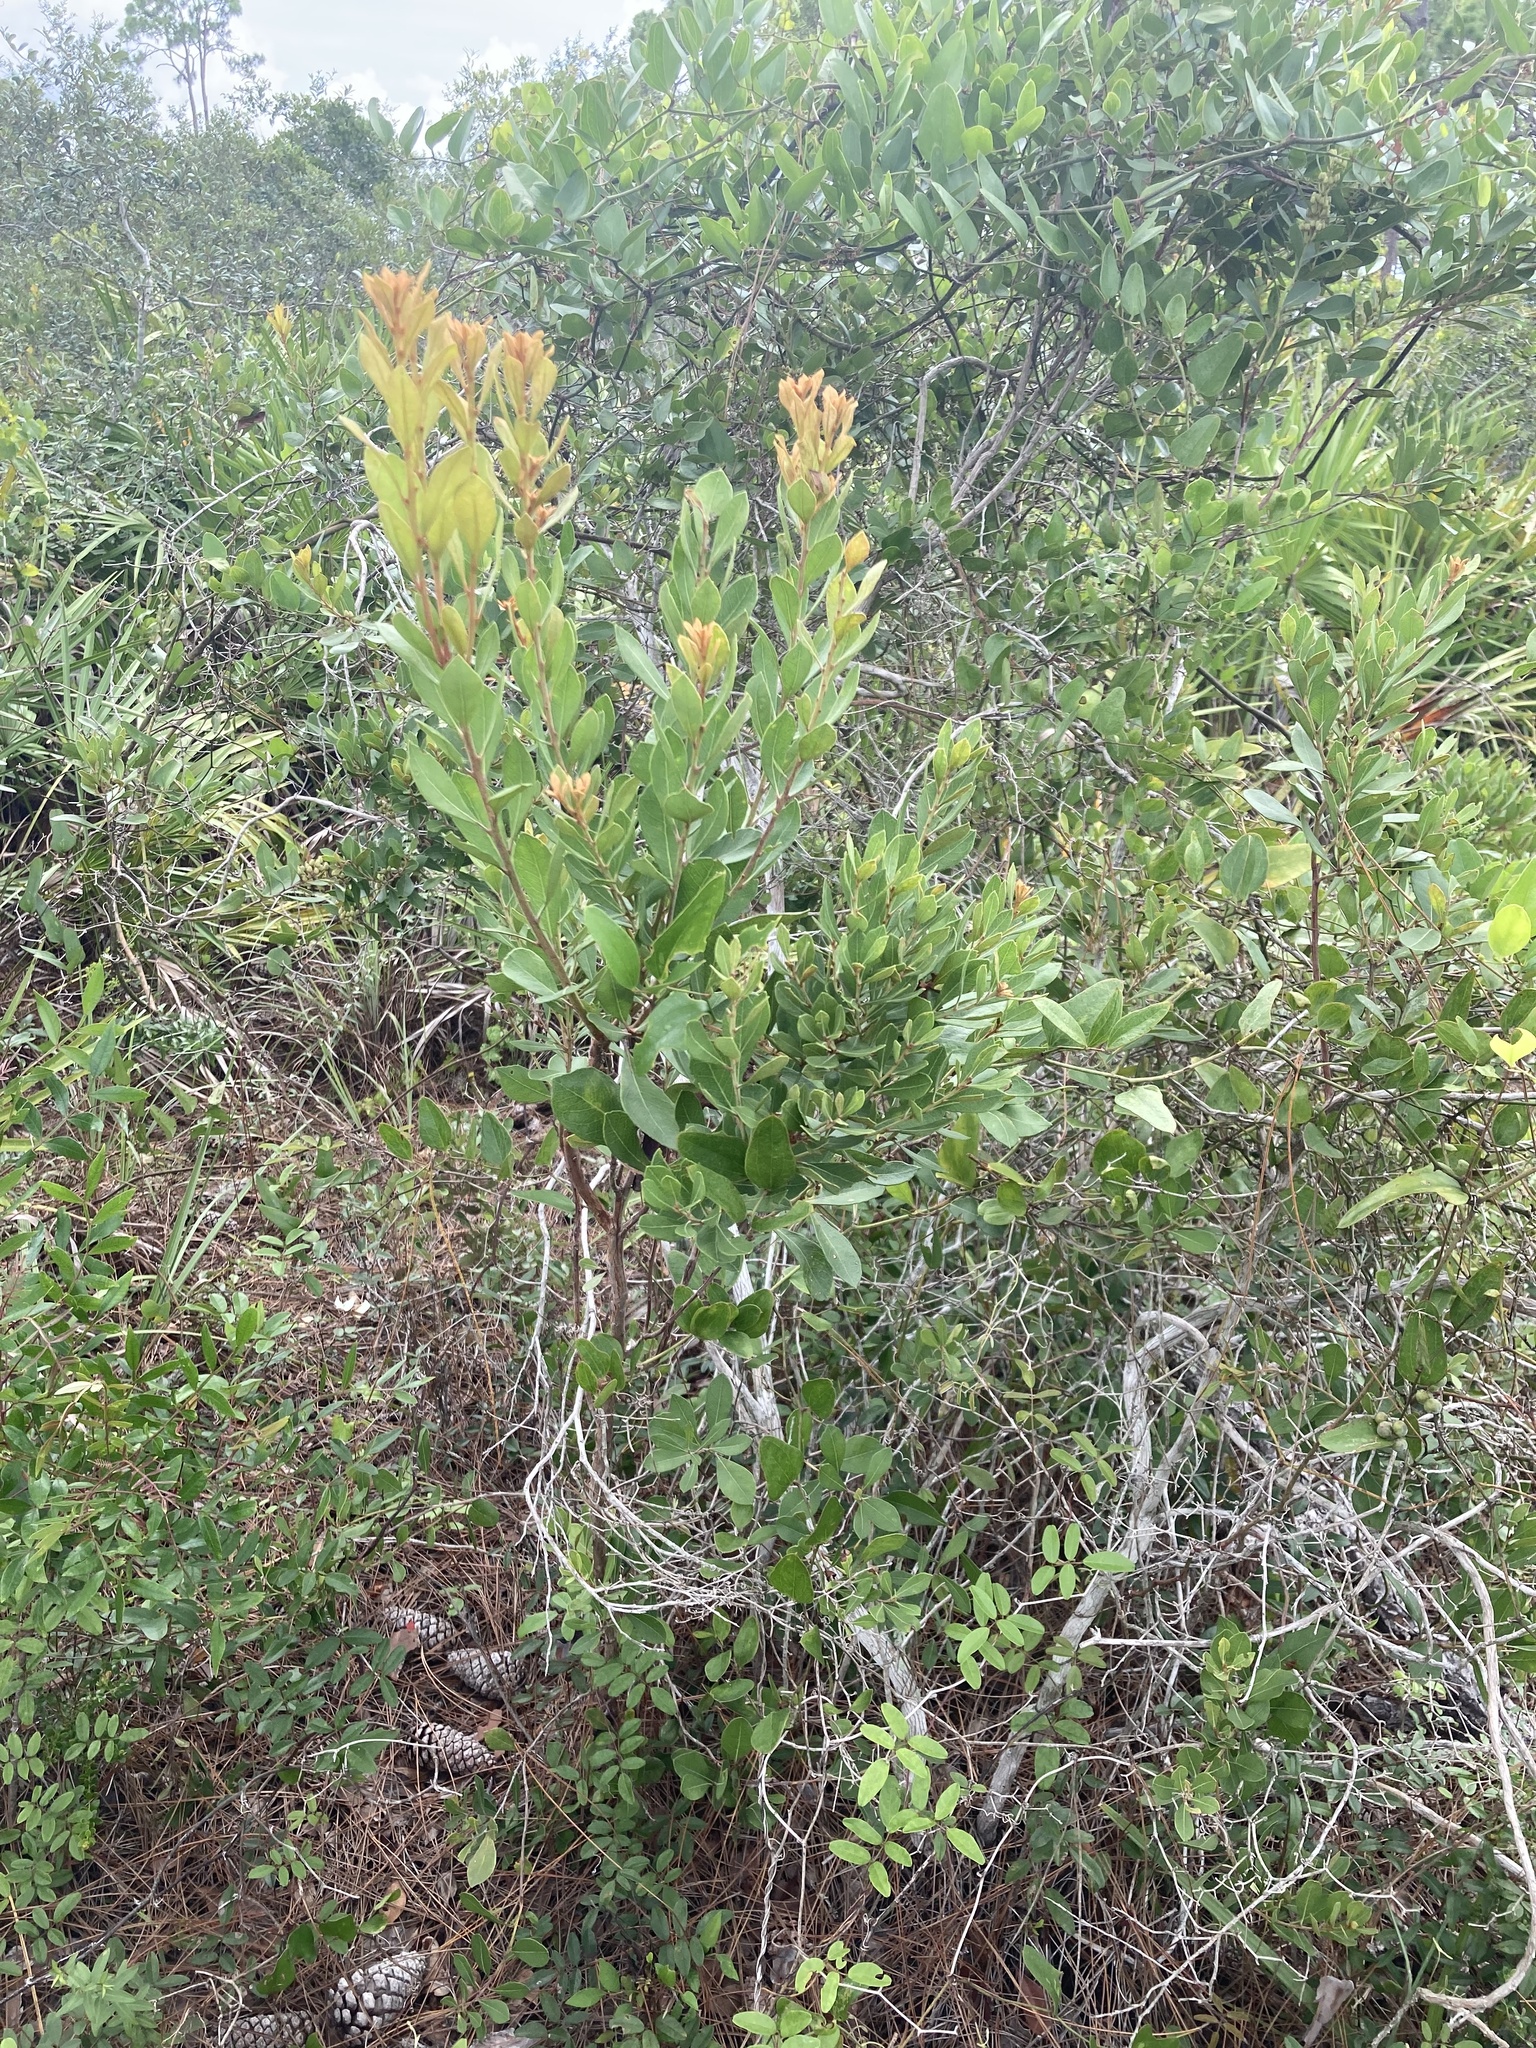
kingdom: Plantae
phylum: Tracheophyta
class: Magnoliopsida
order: Ericales
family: Ericaceae
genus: Lyonia
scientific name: Lyonia fruticosa
